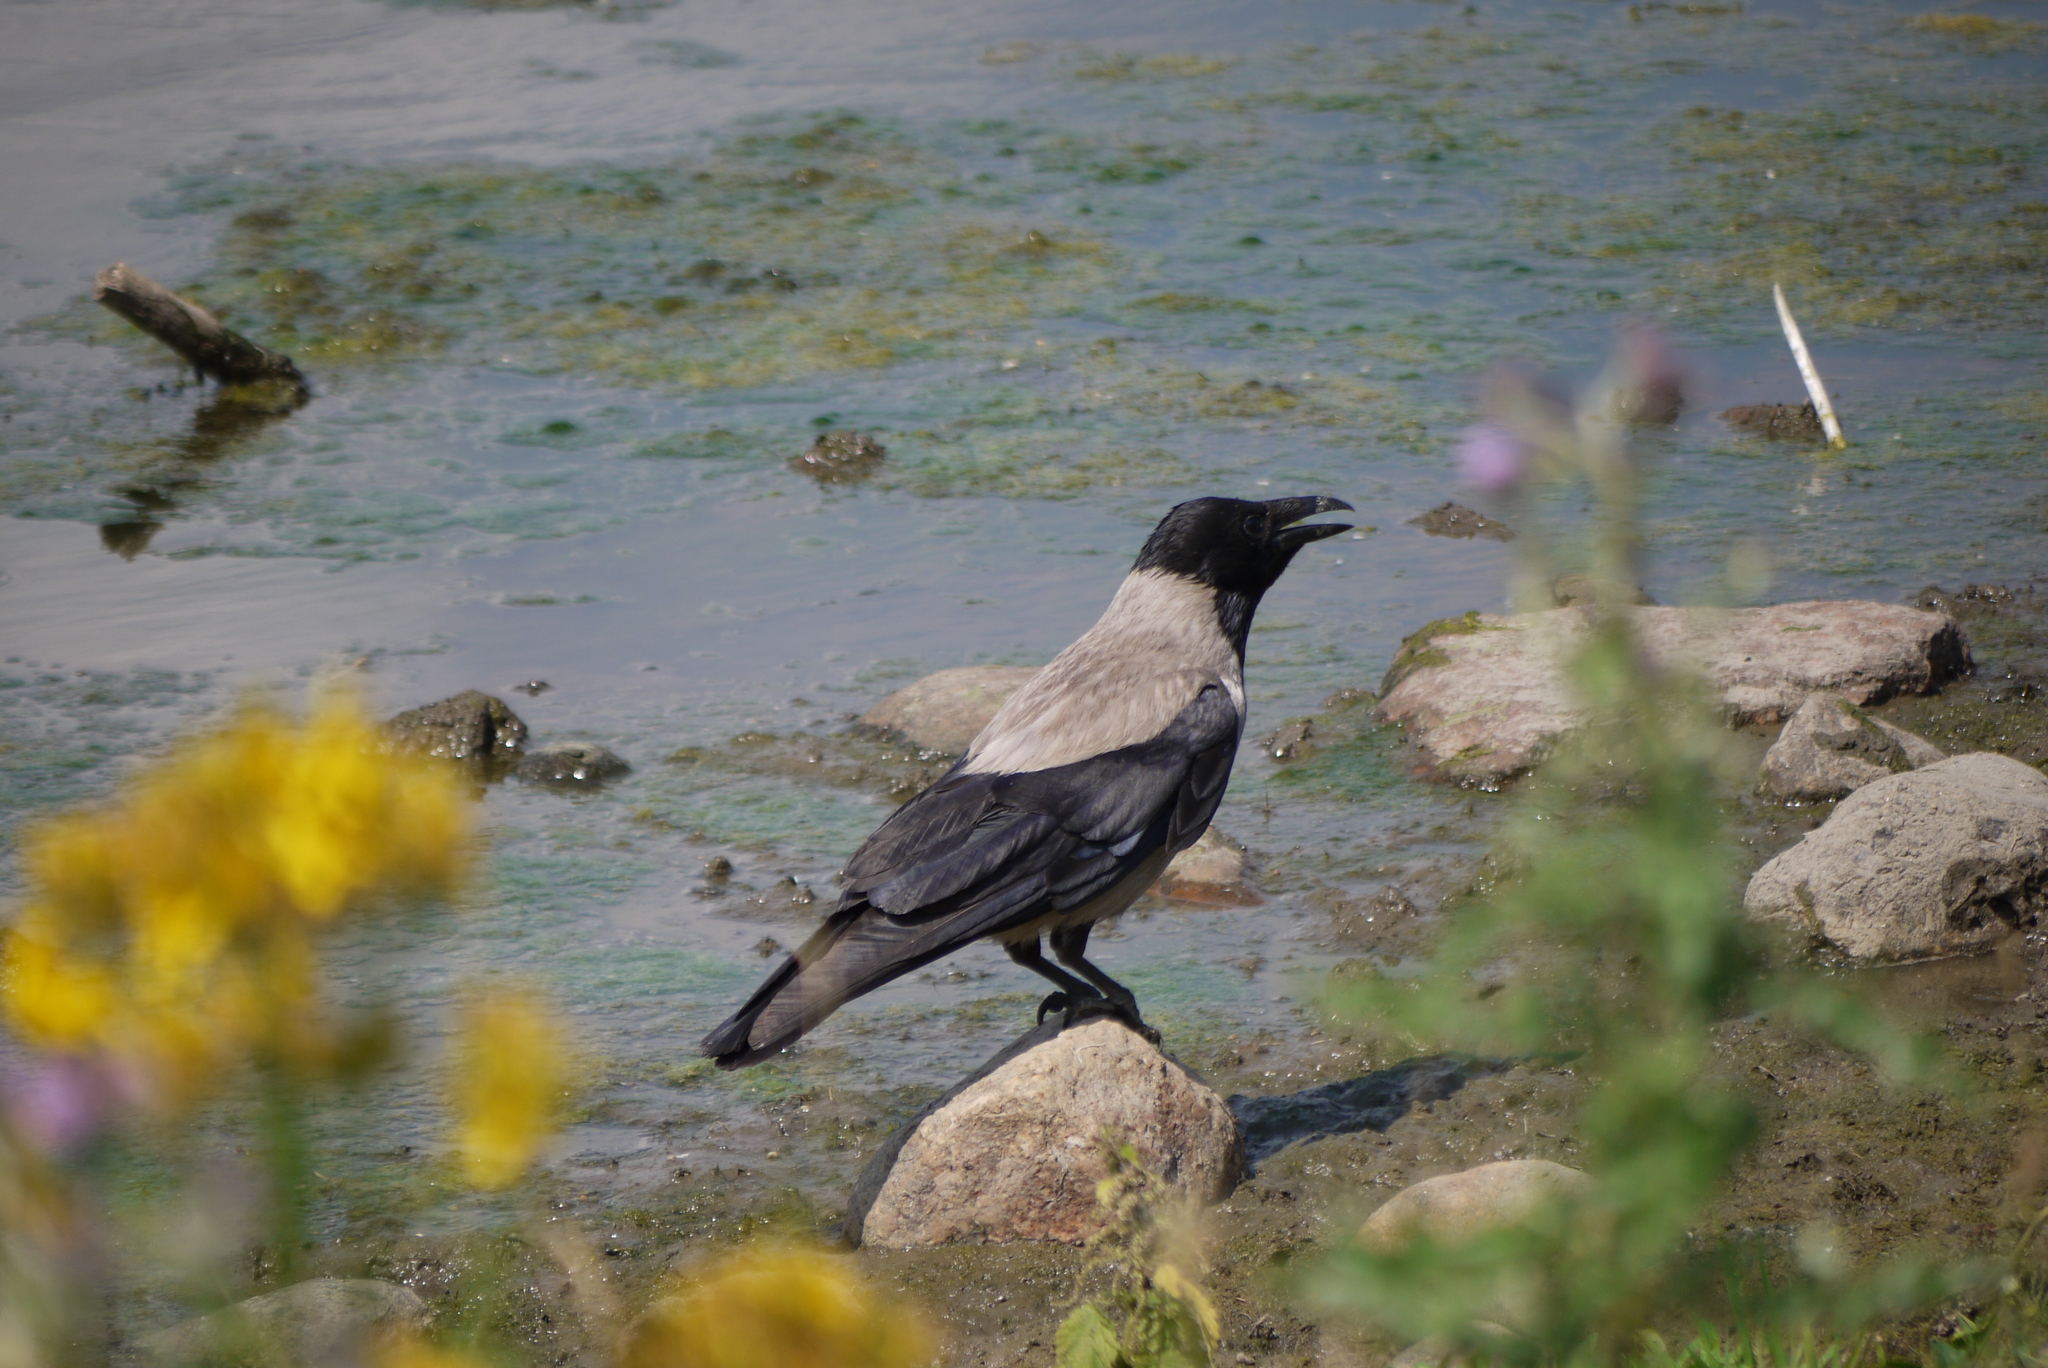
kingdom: Animalia
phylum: Chordata
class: Aves
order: Passeriformes
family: Corvidae
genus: Corvus
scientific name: Corvus cornix
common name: Hooded crow
